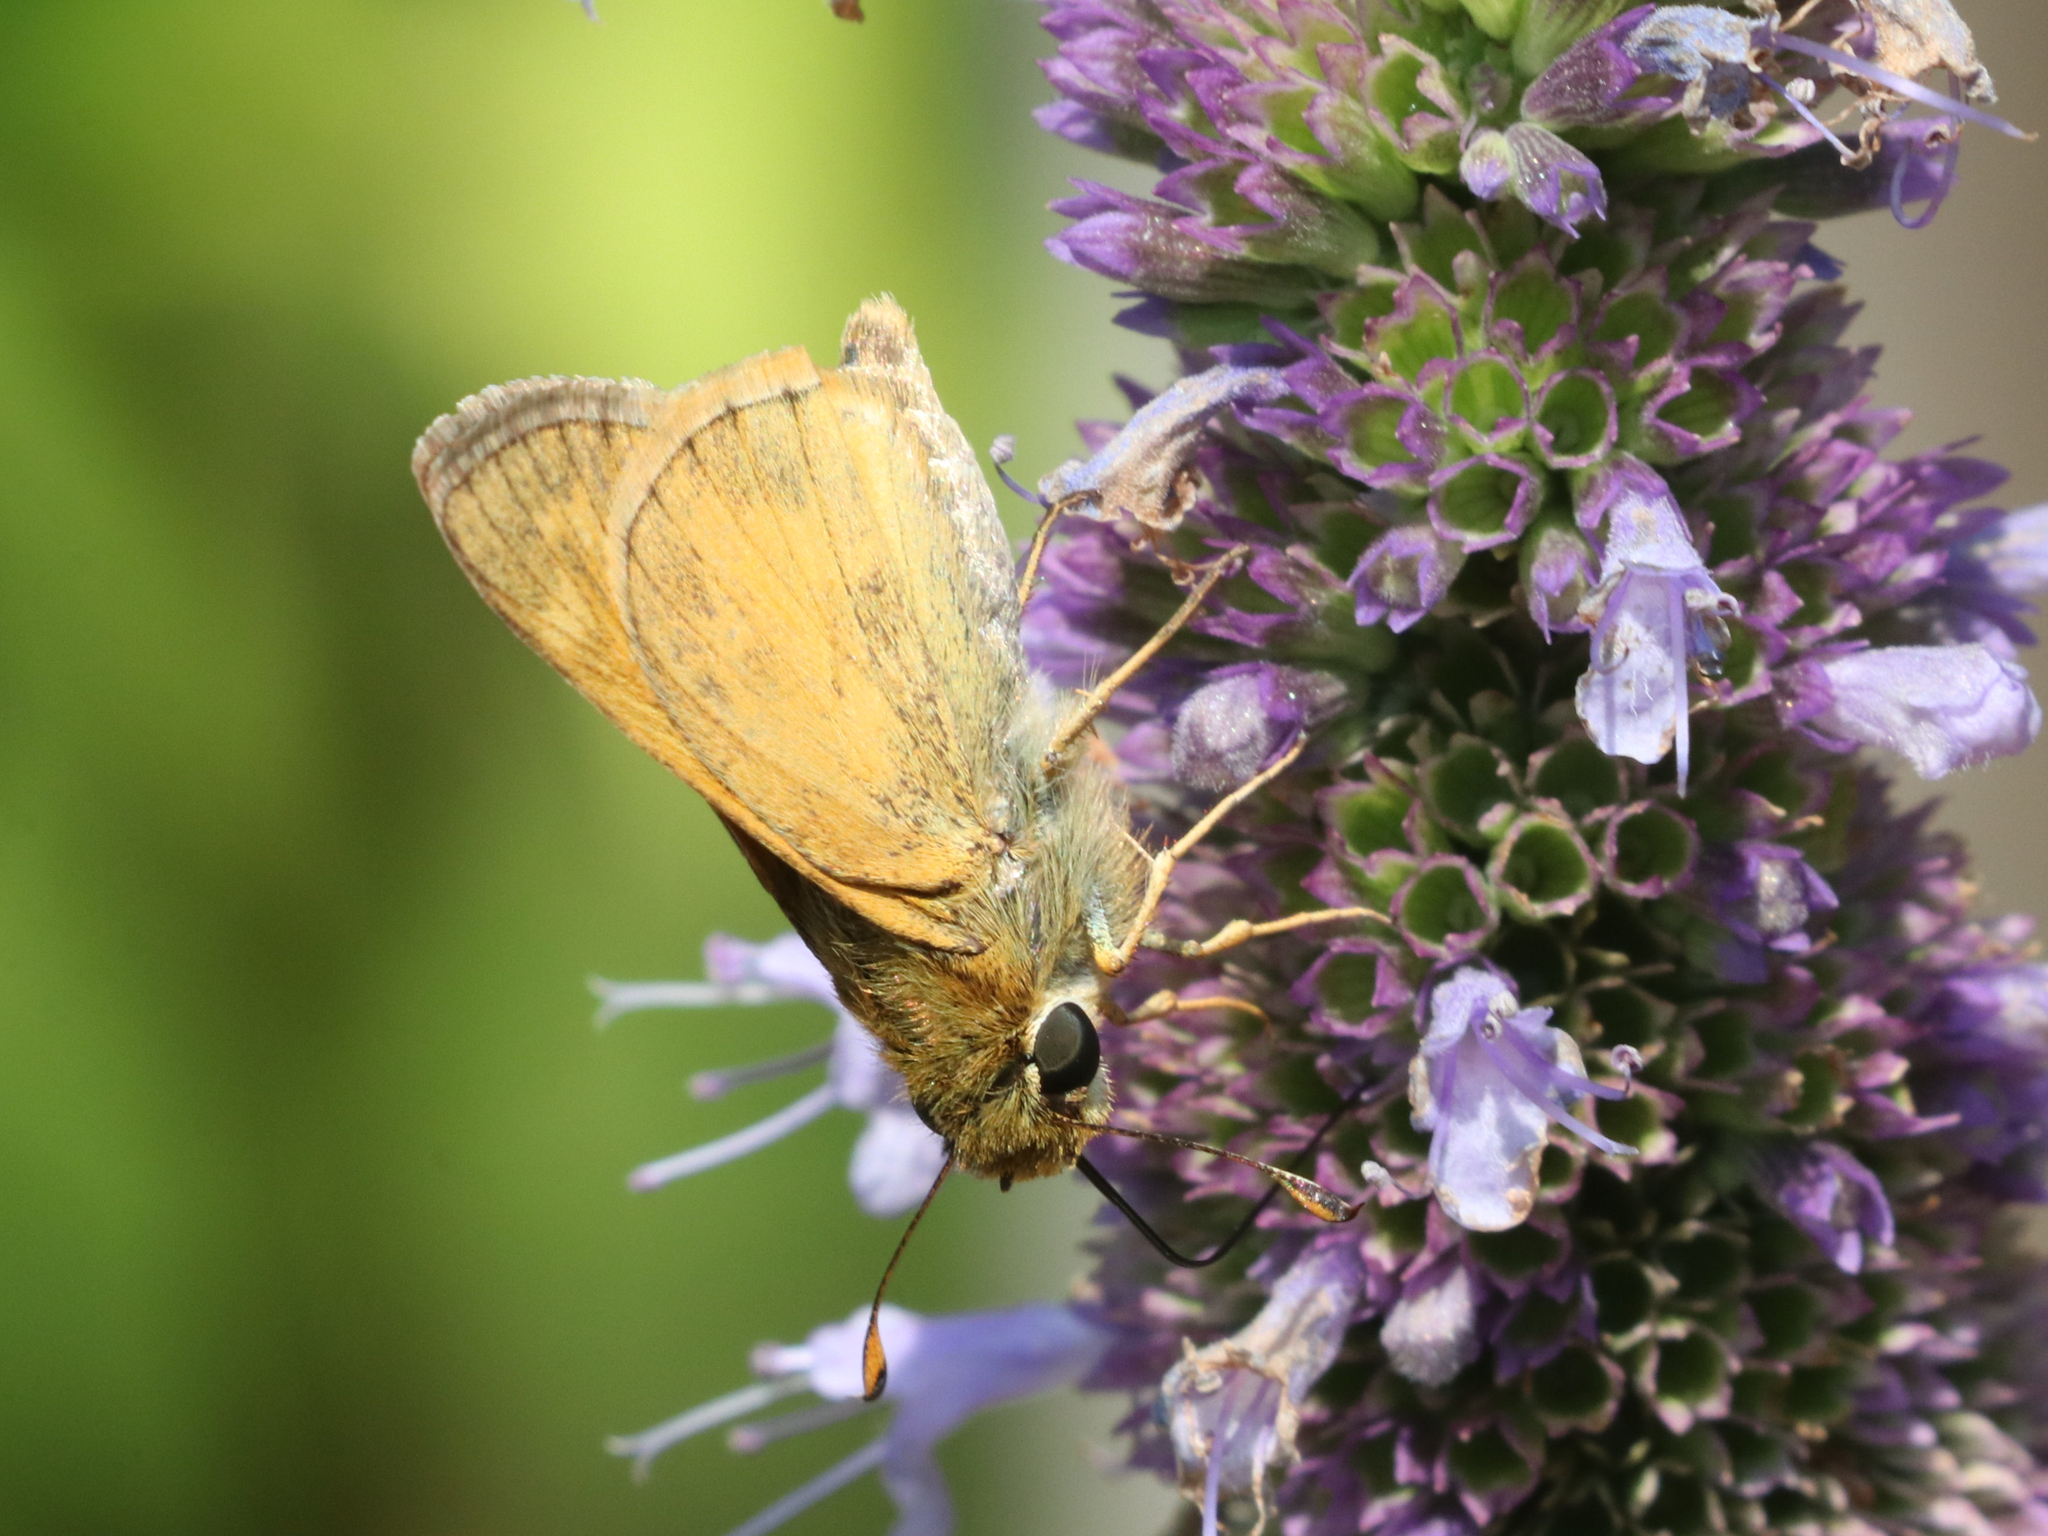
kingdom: Animalia
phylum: Arthropoda
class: Insecta
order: Lepidoptera
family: Hesperiidae
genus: Atalopedes
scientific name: Atalopedes
